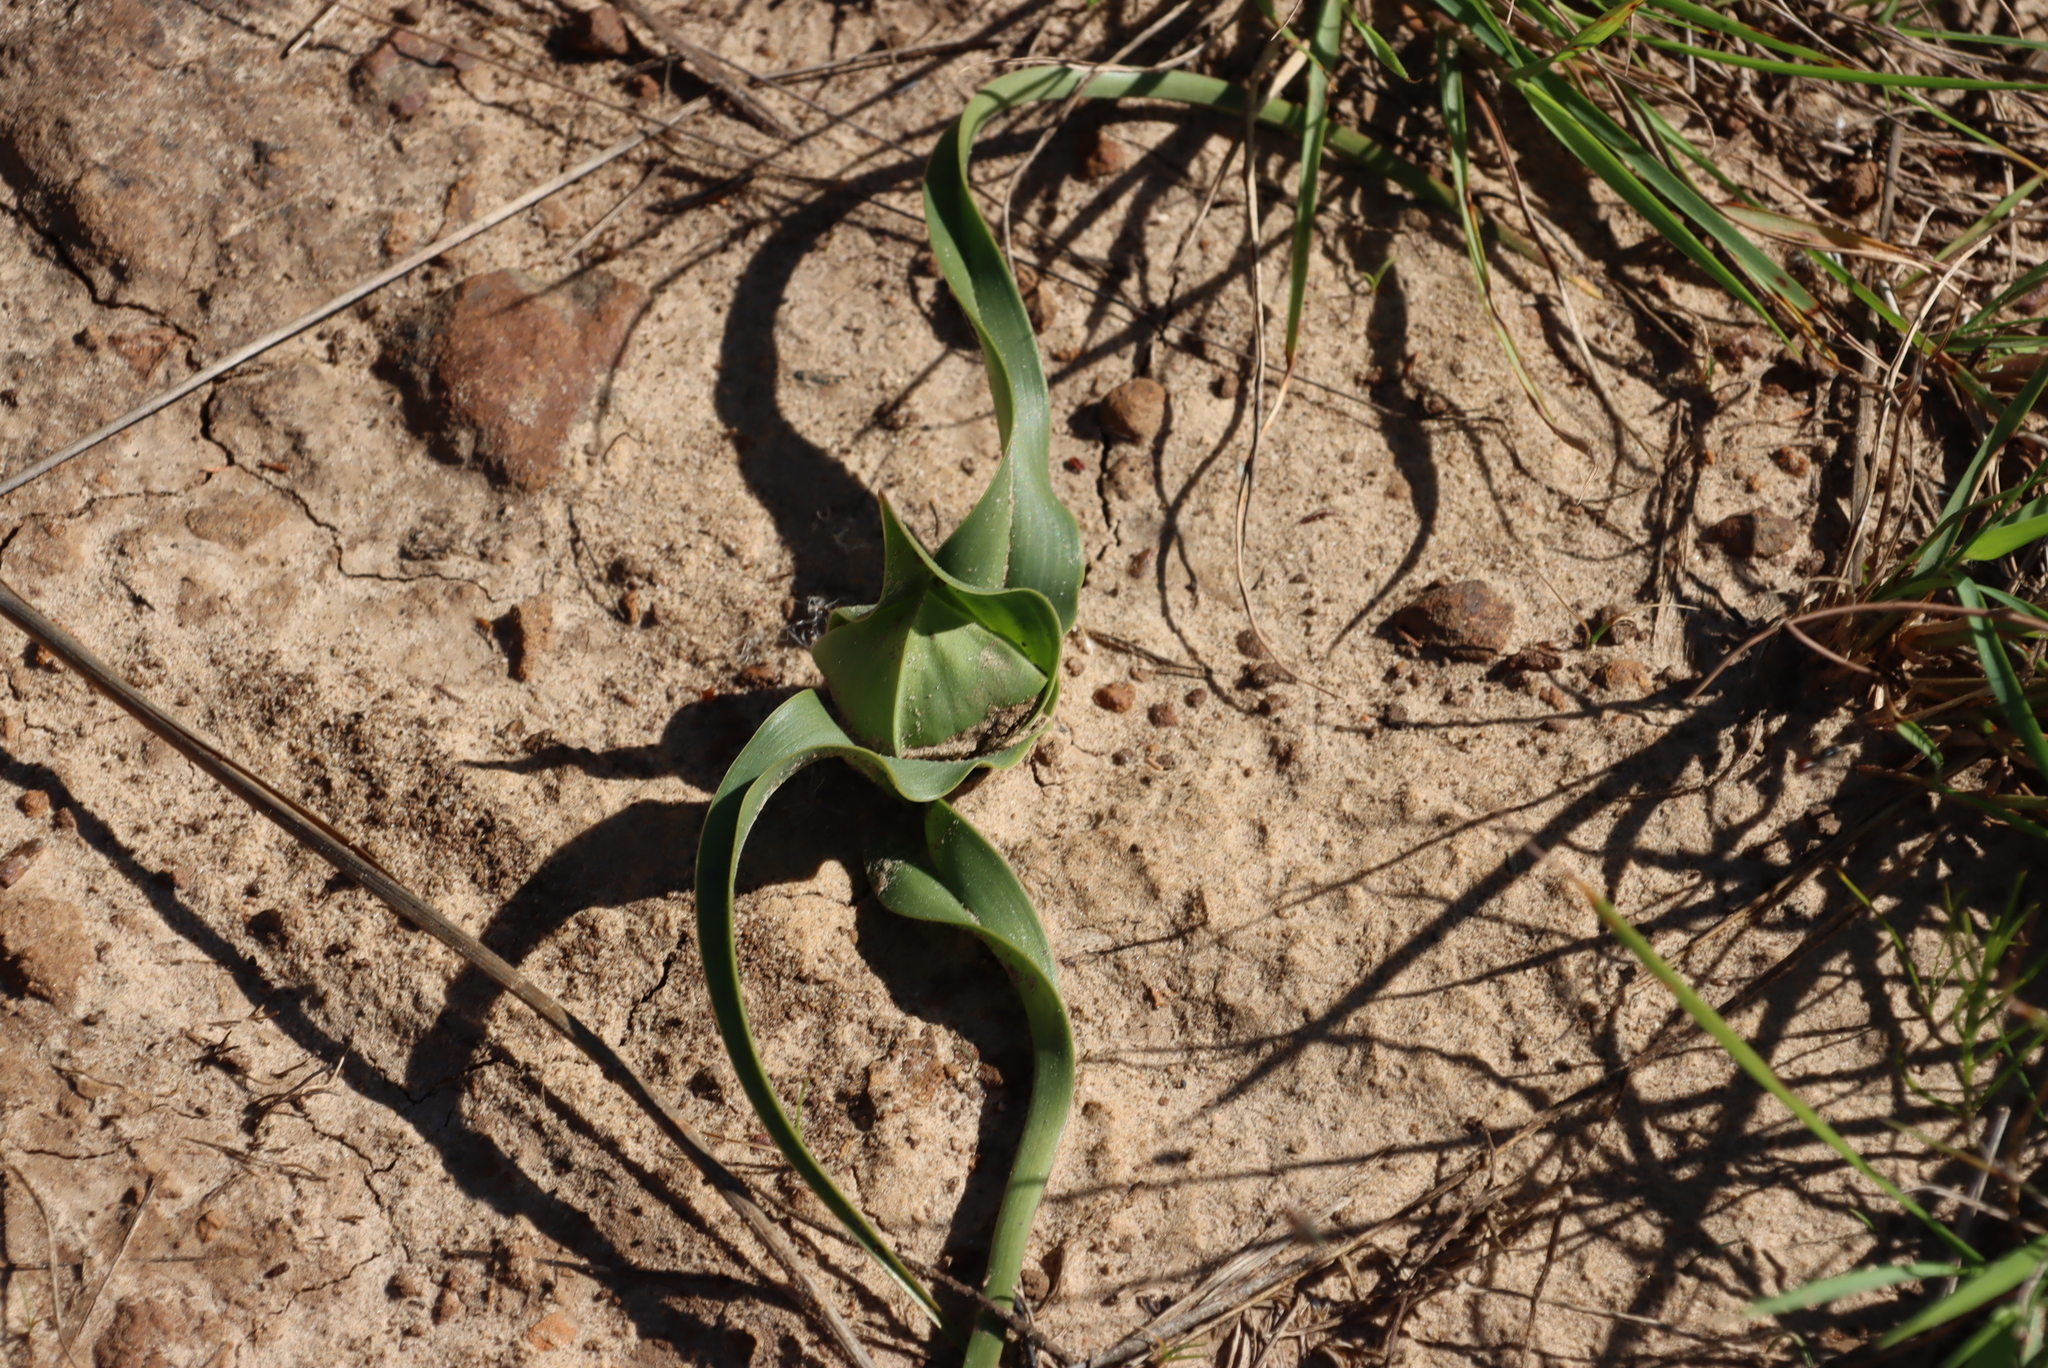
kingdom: Plantae
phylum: Tracheophyta
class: Liliopsida
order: Liliales
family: Colchicaceae
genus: Colchicum
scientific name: Colchicum eucomoides
